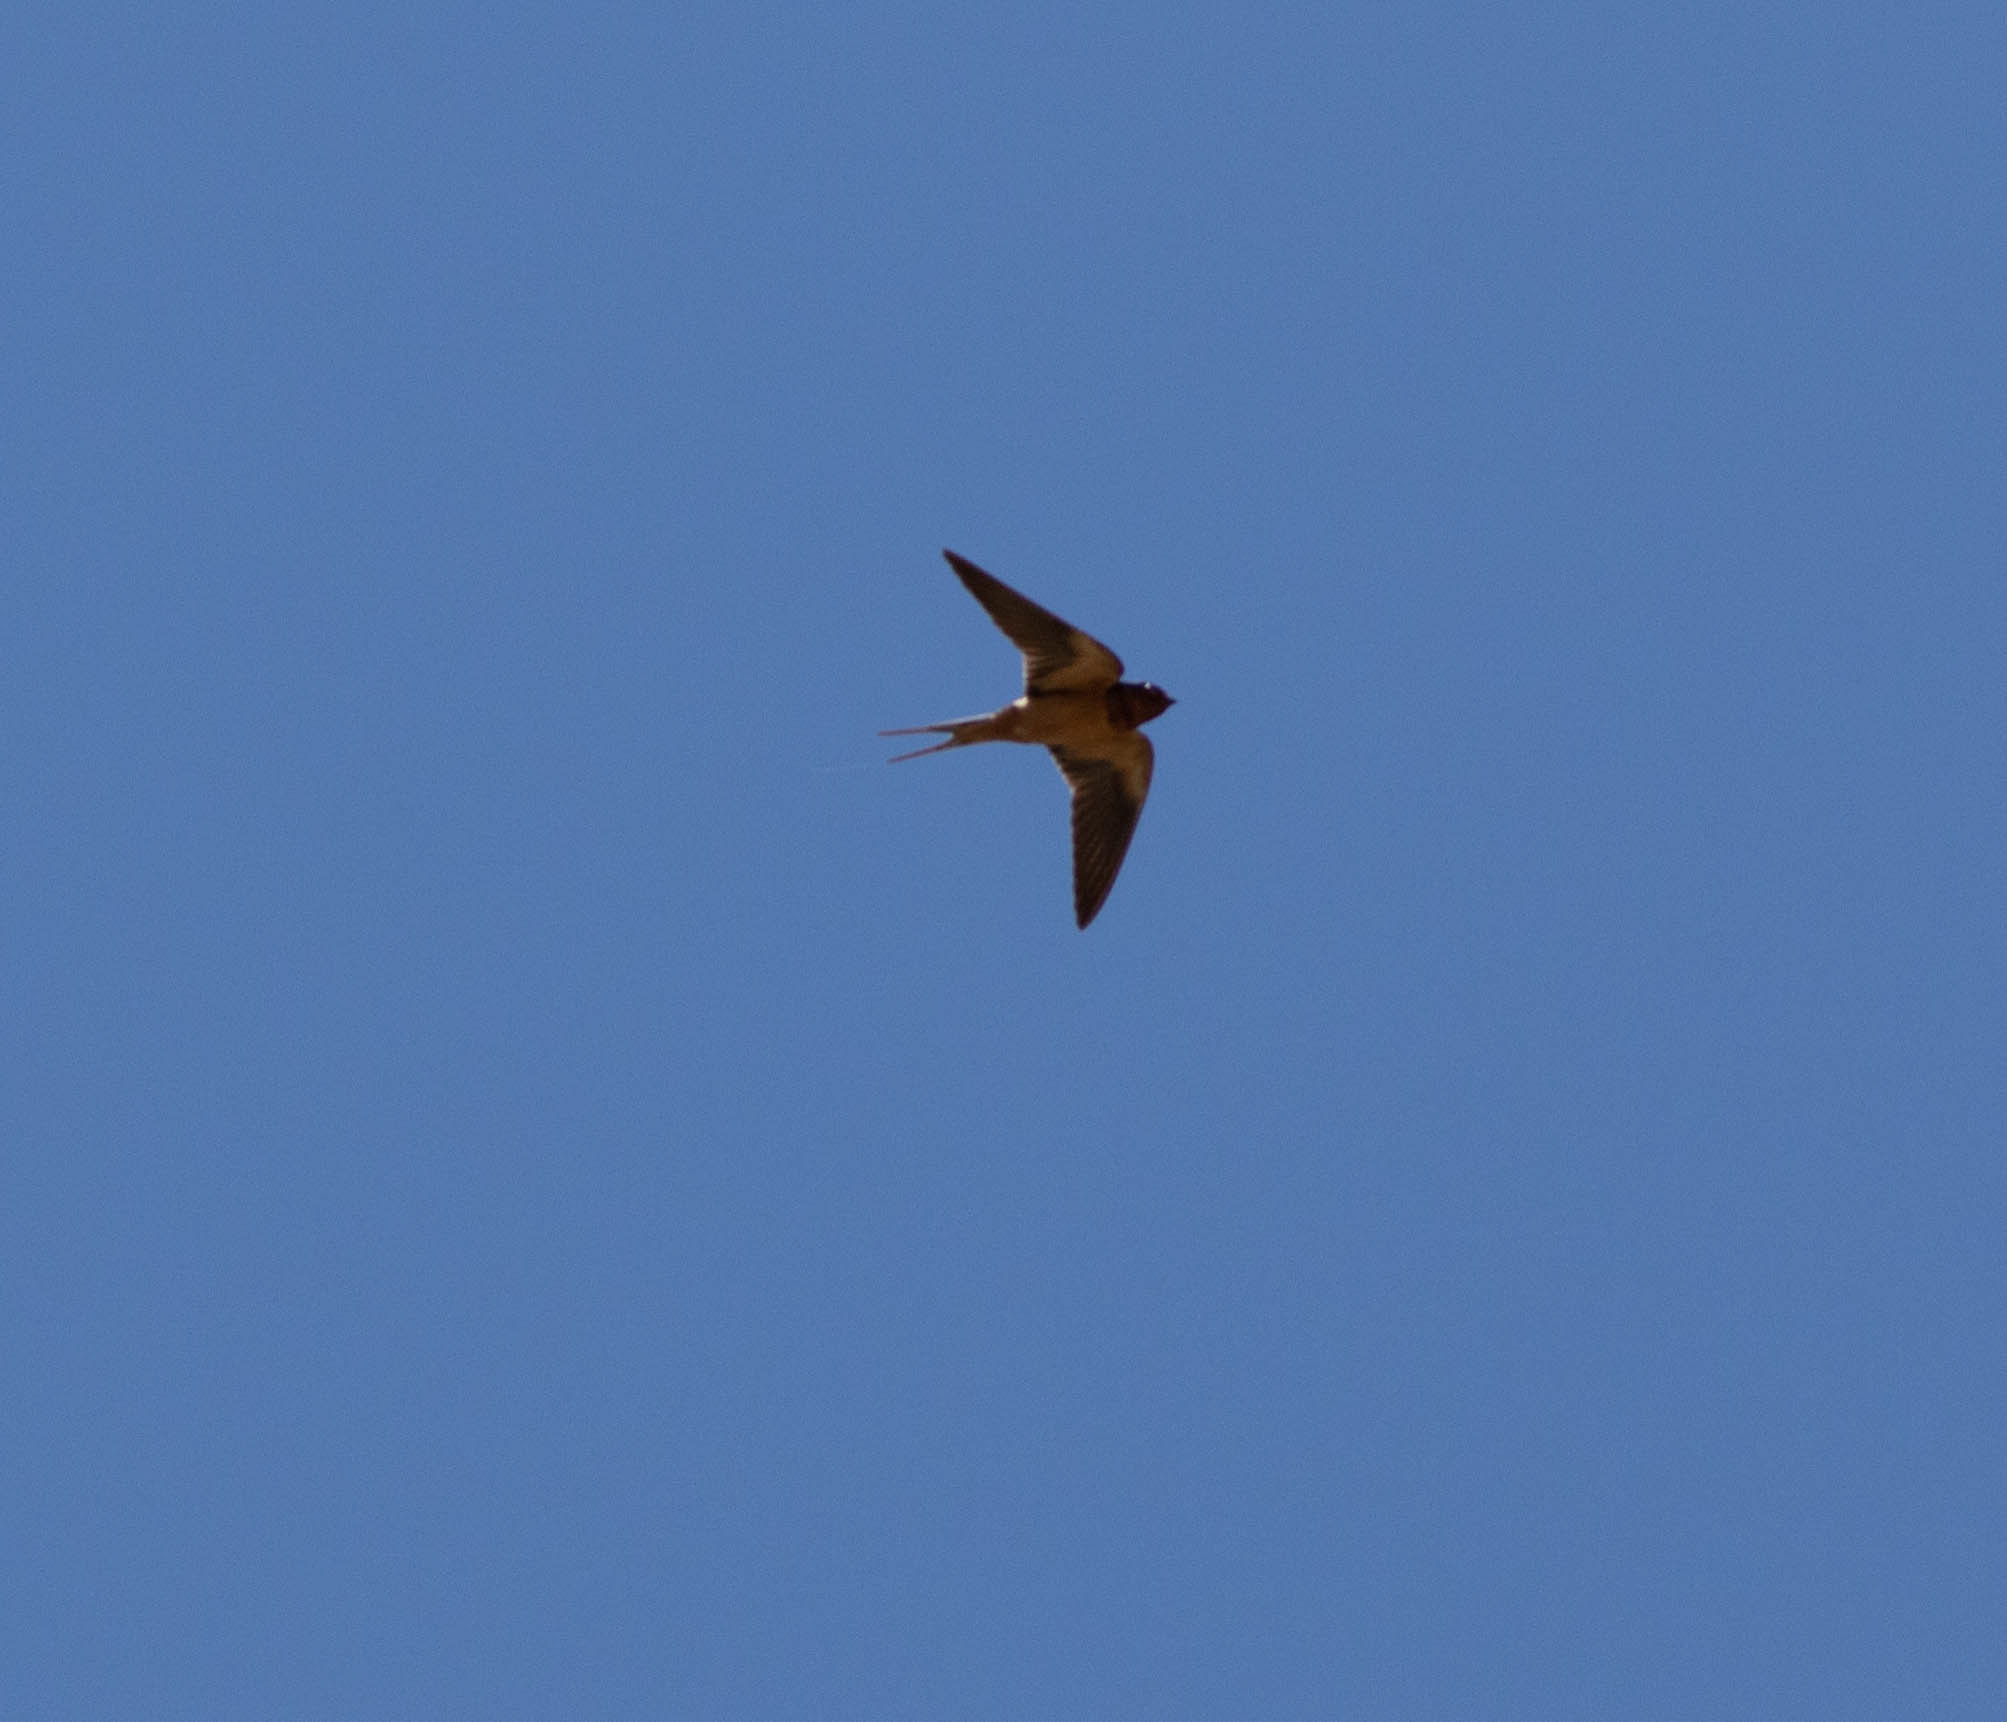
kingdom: Animalia
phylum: Chordata
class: Aves
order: Passeriformes
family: Hirundinidae
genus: Hirundo
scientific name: Hirundo rustica
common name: Barn swallow
